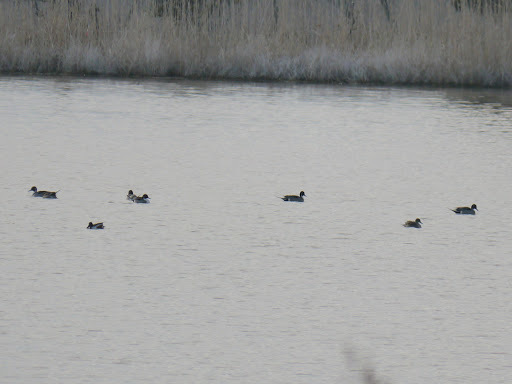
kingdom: Animalia
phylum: Chordata
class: Aves
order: Anseriformes
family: Anatidae
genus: Anas
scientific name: Anas acuta
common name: Northern pintail
